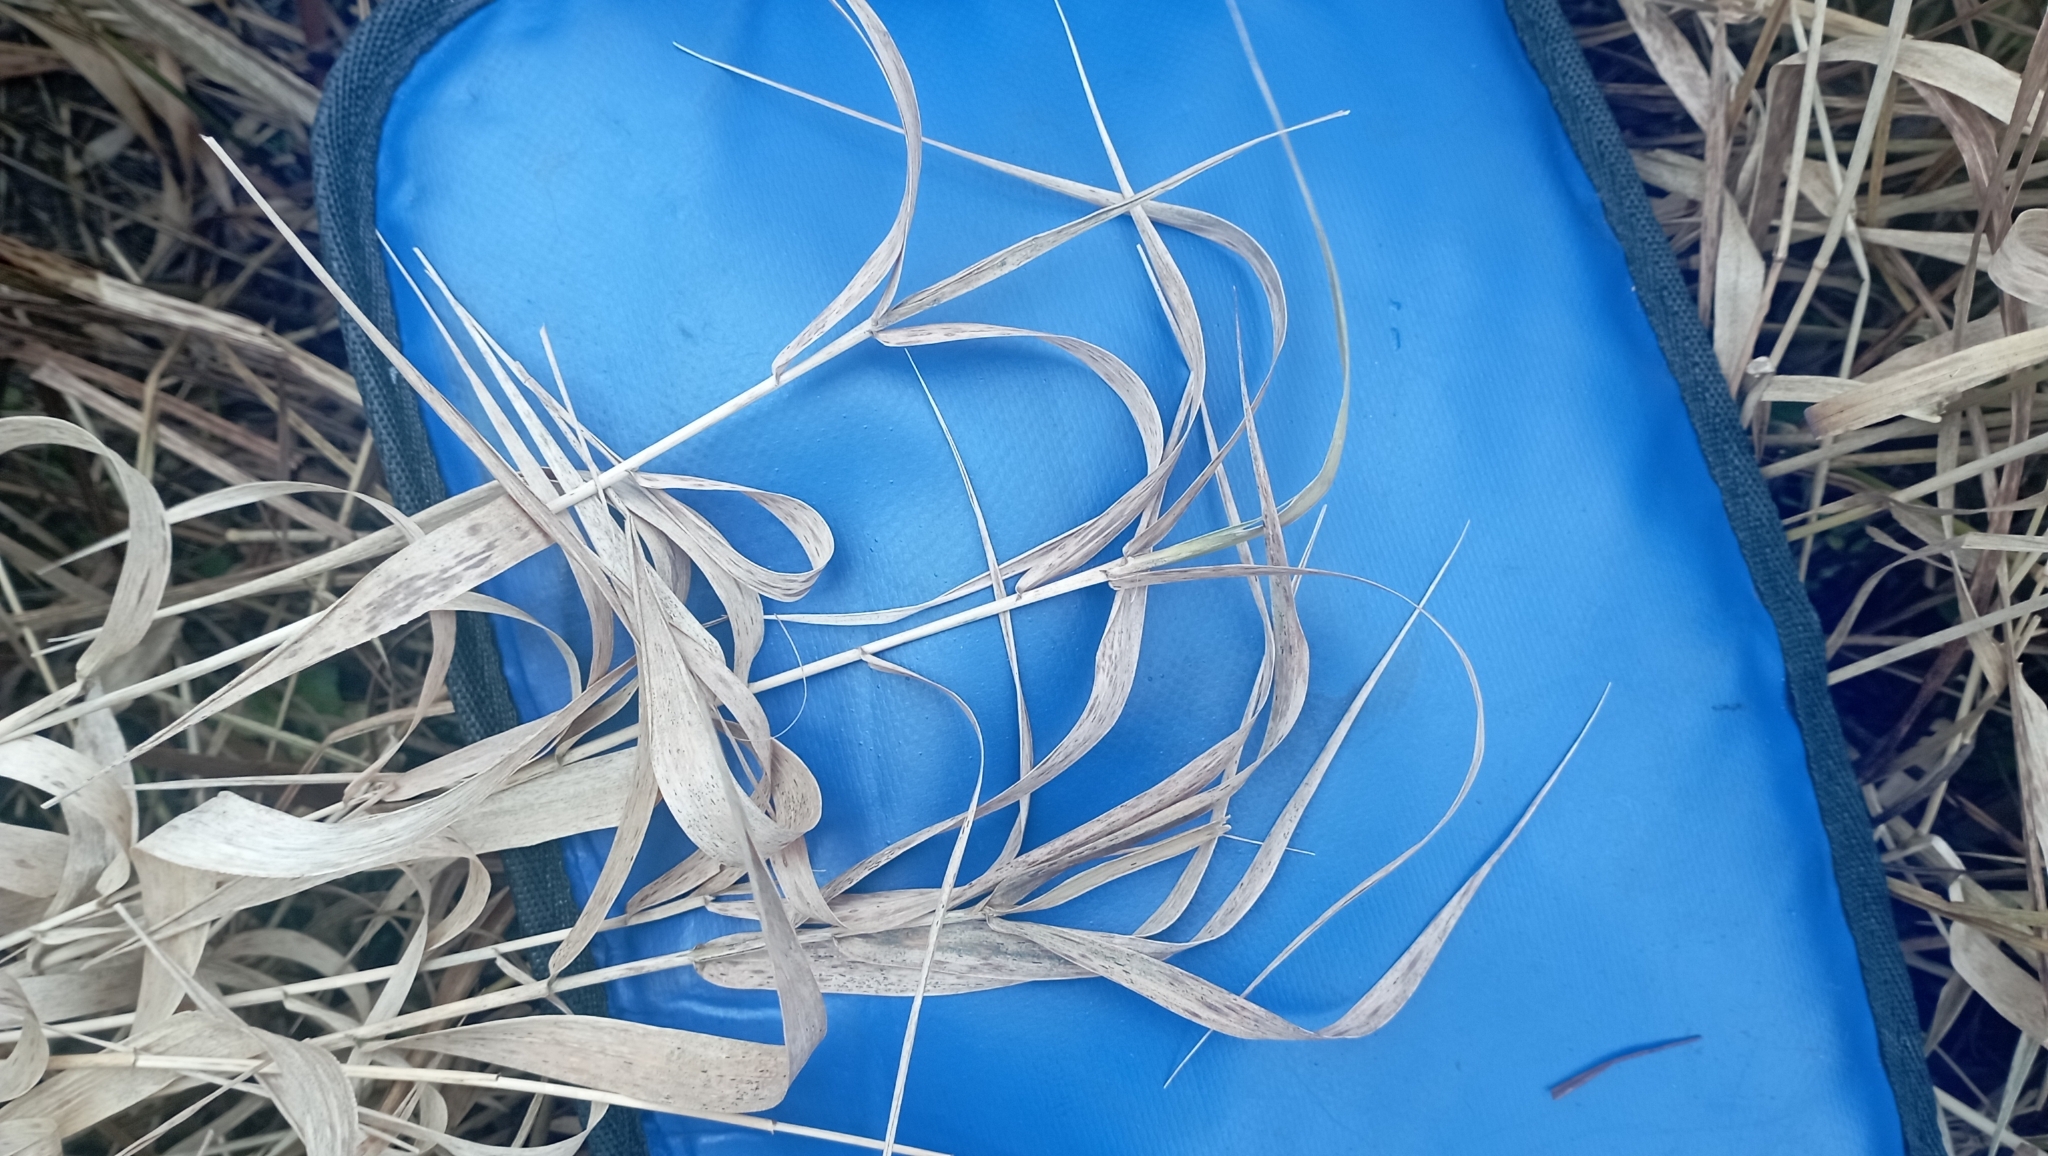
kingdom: Plantae
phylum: Tracheophyta
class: Liliopsida
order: Poales
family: Poaceae
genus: Phragmites
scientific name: Phragmites australis
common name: Common reed
